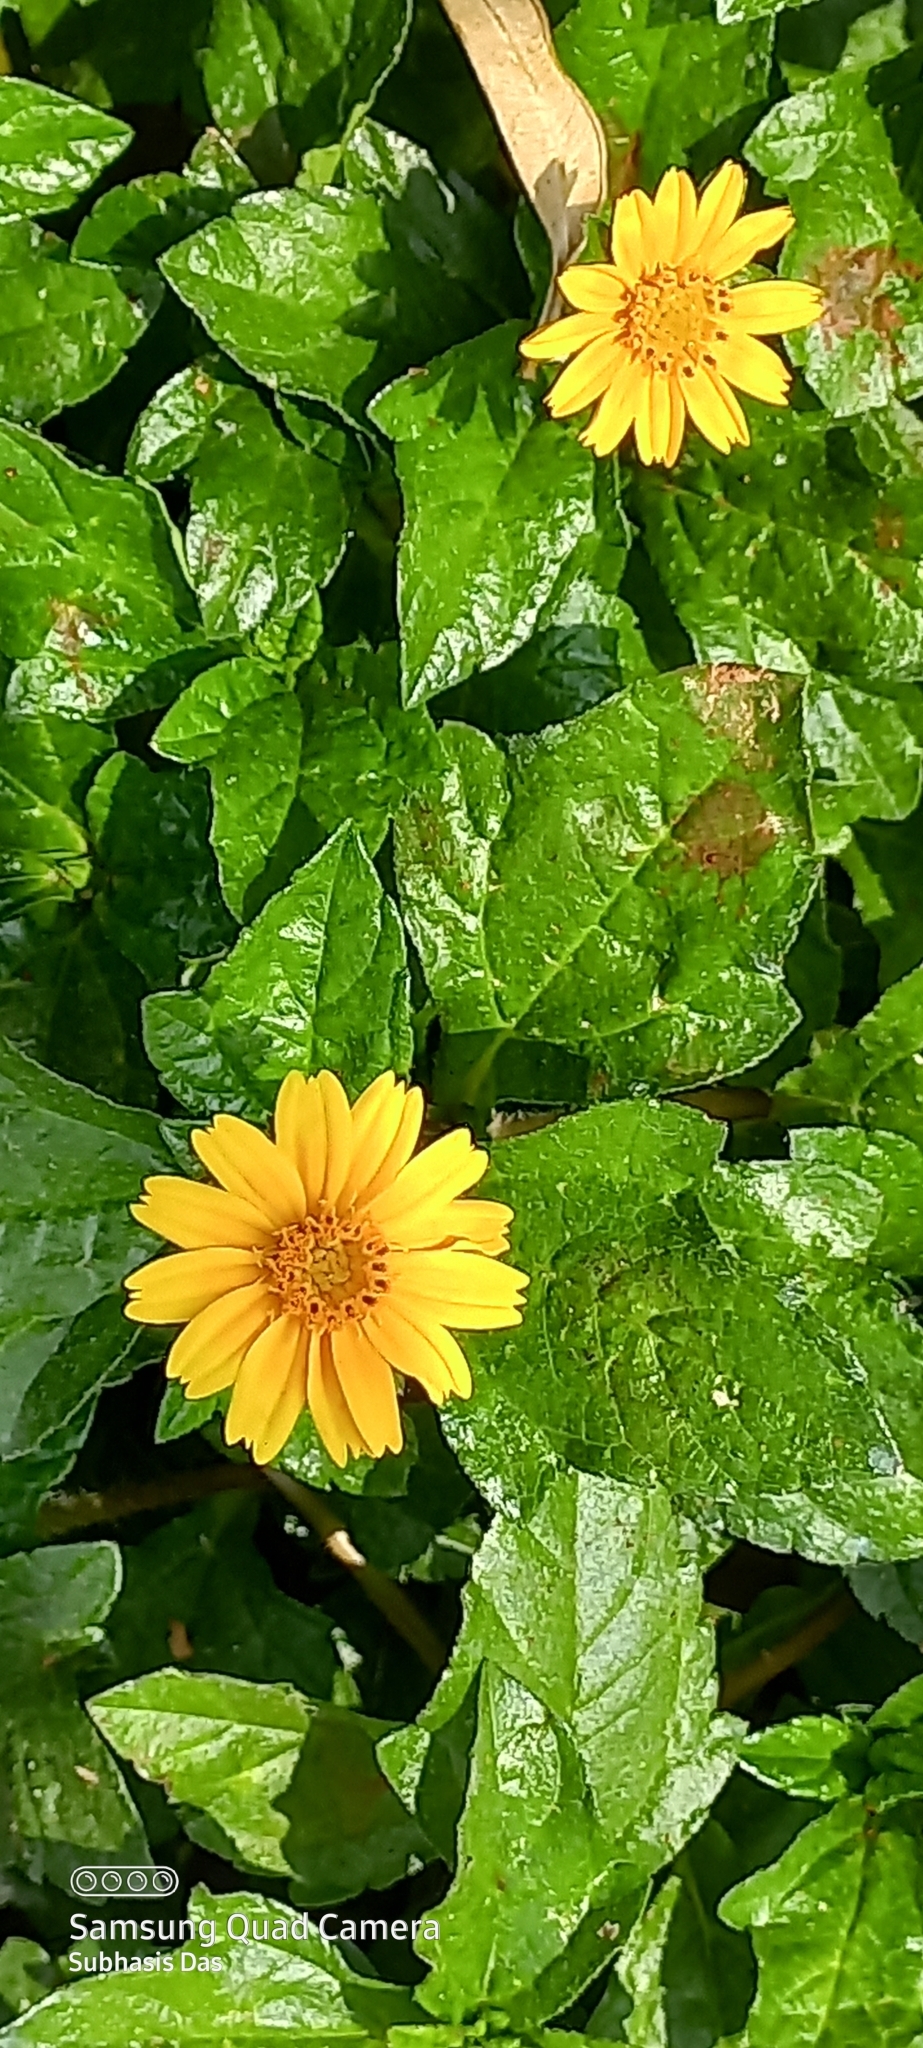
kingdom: Plantae
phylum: Tracheophyta
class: Magnoliopsida
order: Asterales
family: Asteraceae
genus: Sphagneticola
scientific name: Sphagneticola trilobata
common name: Bay biscayne creeping-oxeye
